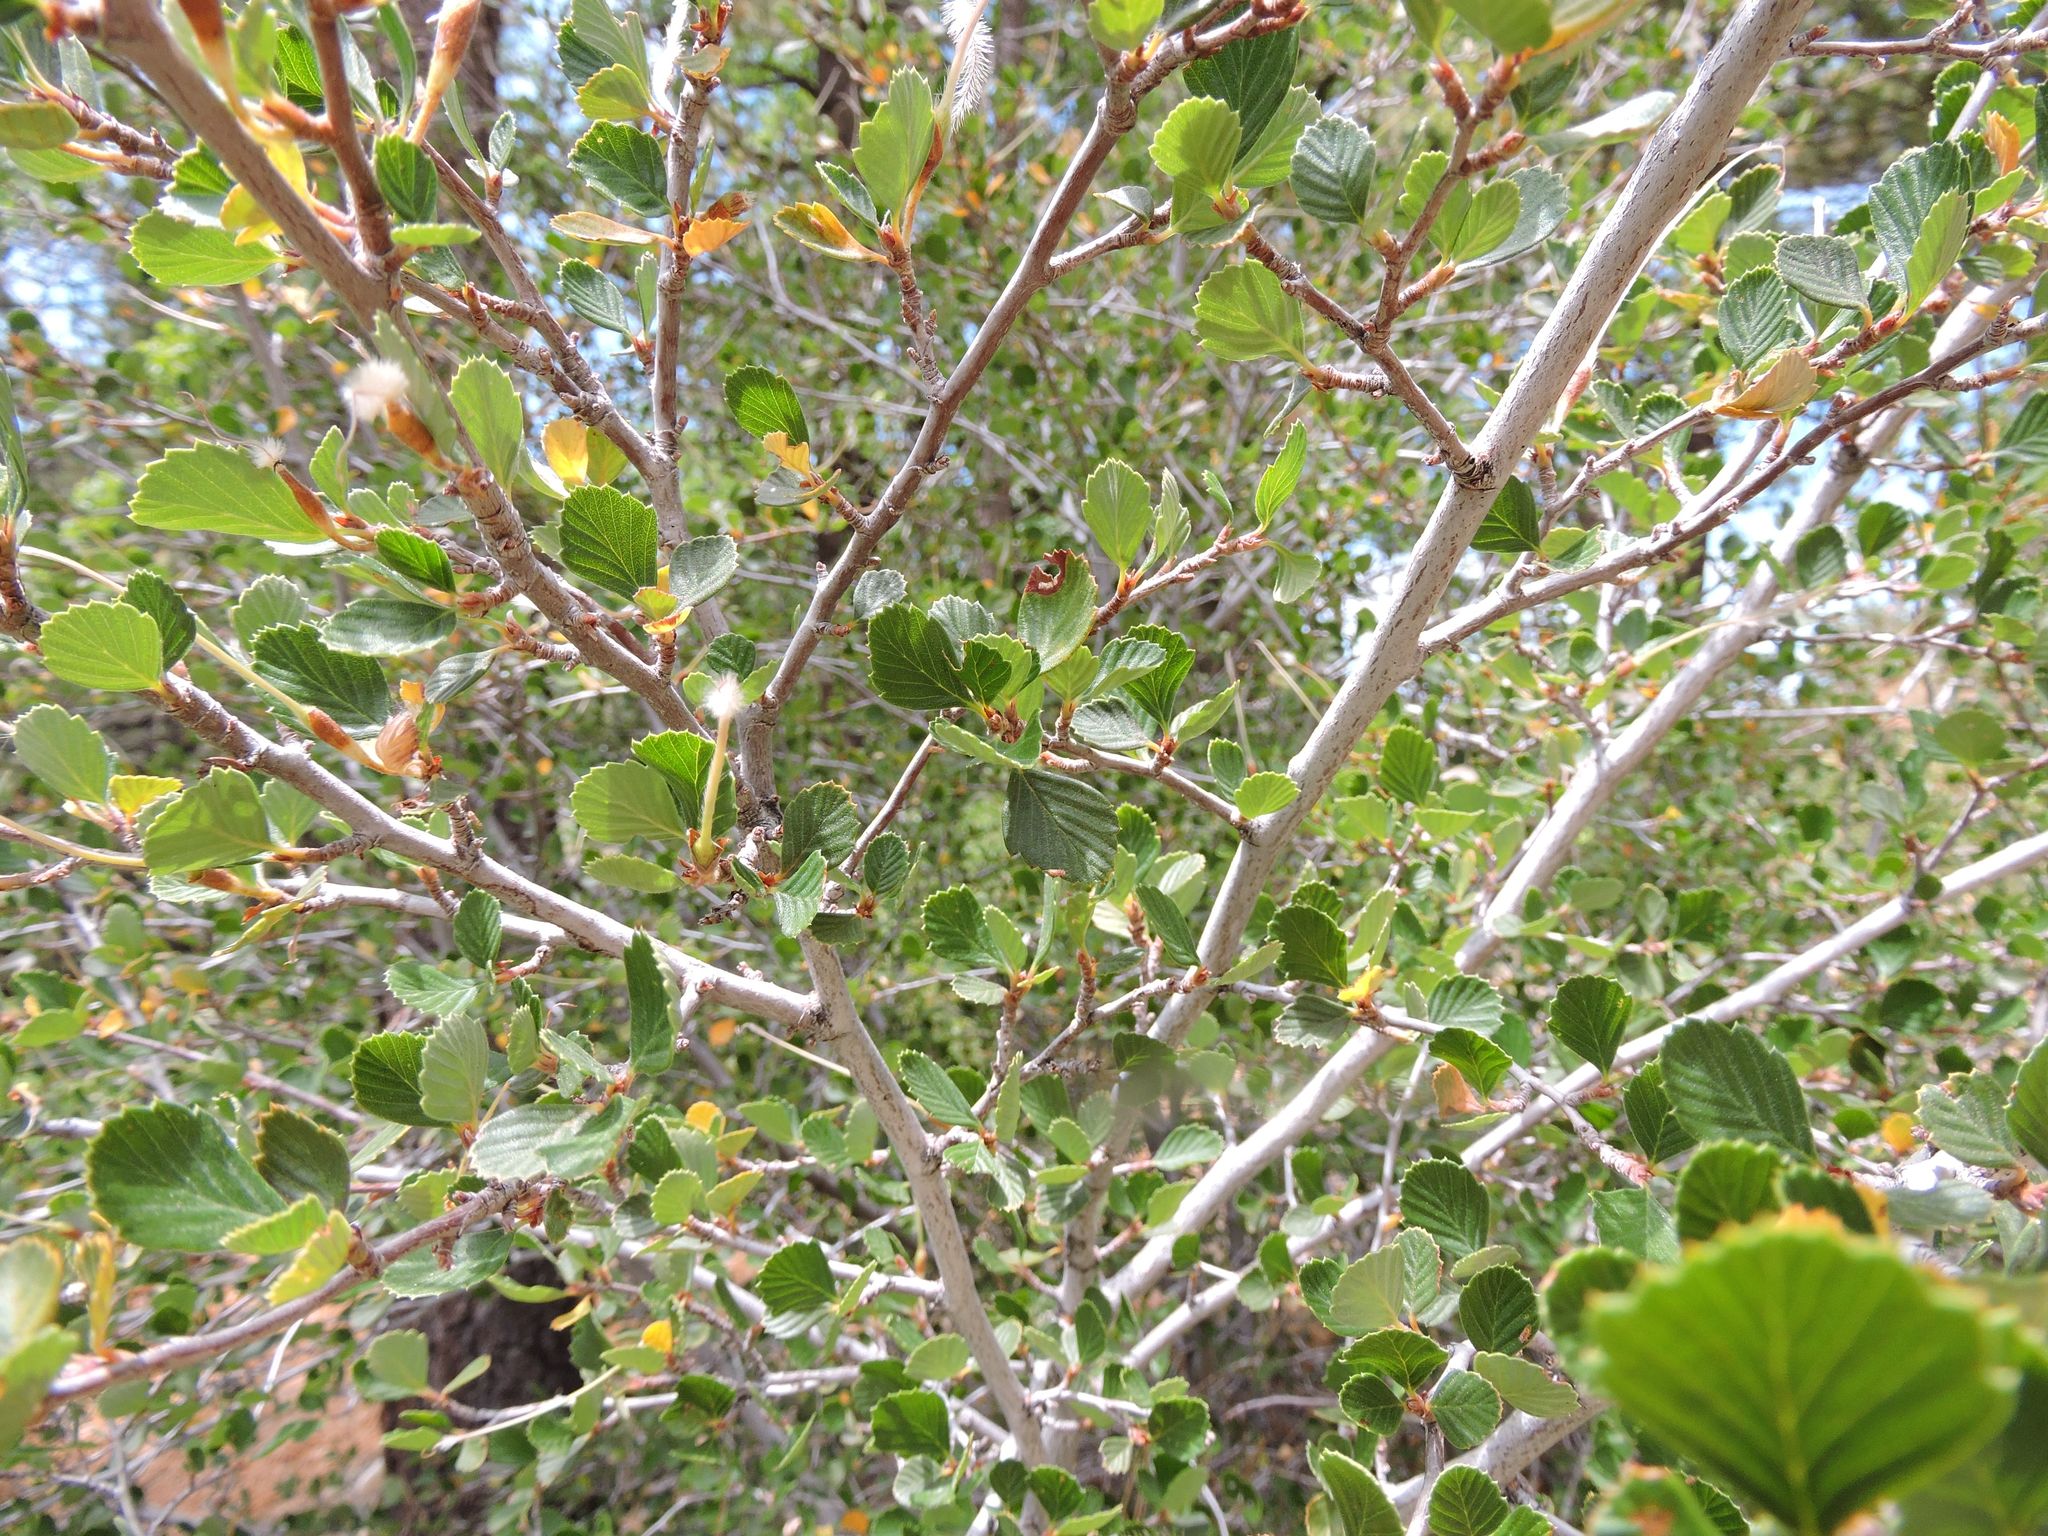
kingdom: Plantae
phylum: Tracheophyta
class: Magnoliopsida
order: Rosales
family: Rosaceae
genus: Cercocarpus
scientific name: Cercocarpus betuloides
